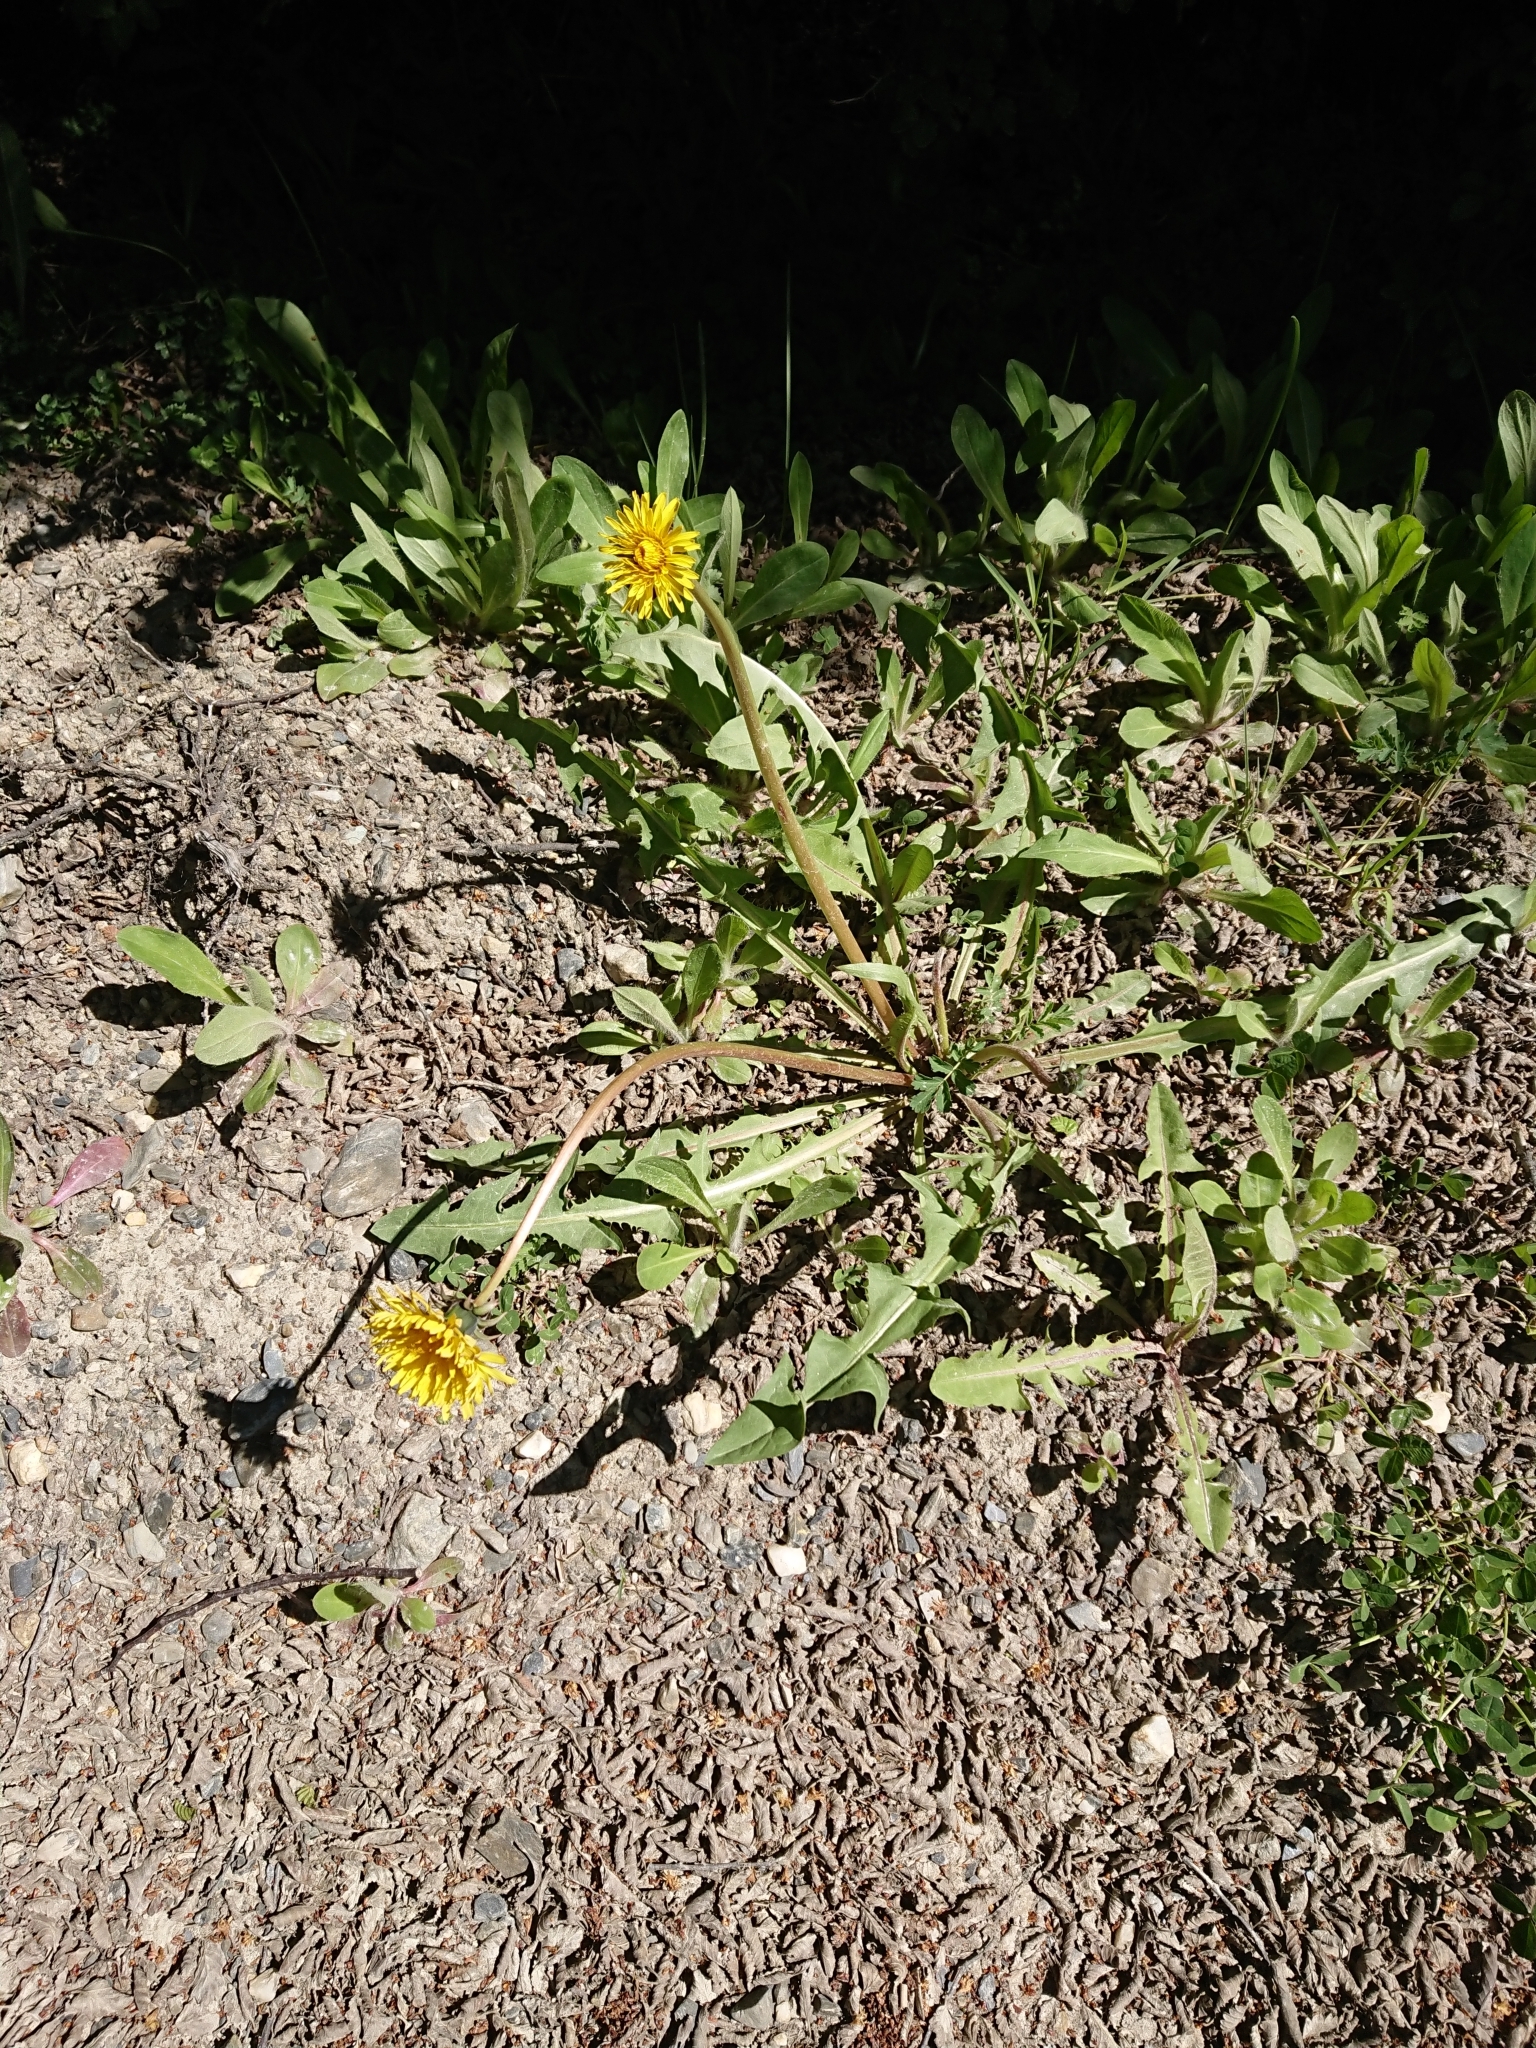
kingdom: Plantae
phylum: Tracheophyta
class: Magnoliopsida
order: Asterales
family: Asteraceae
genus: Taraxacum
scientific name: Taraxacum officinale
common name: Common dandelion
